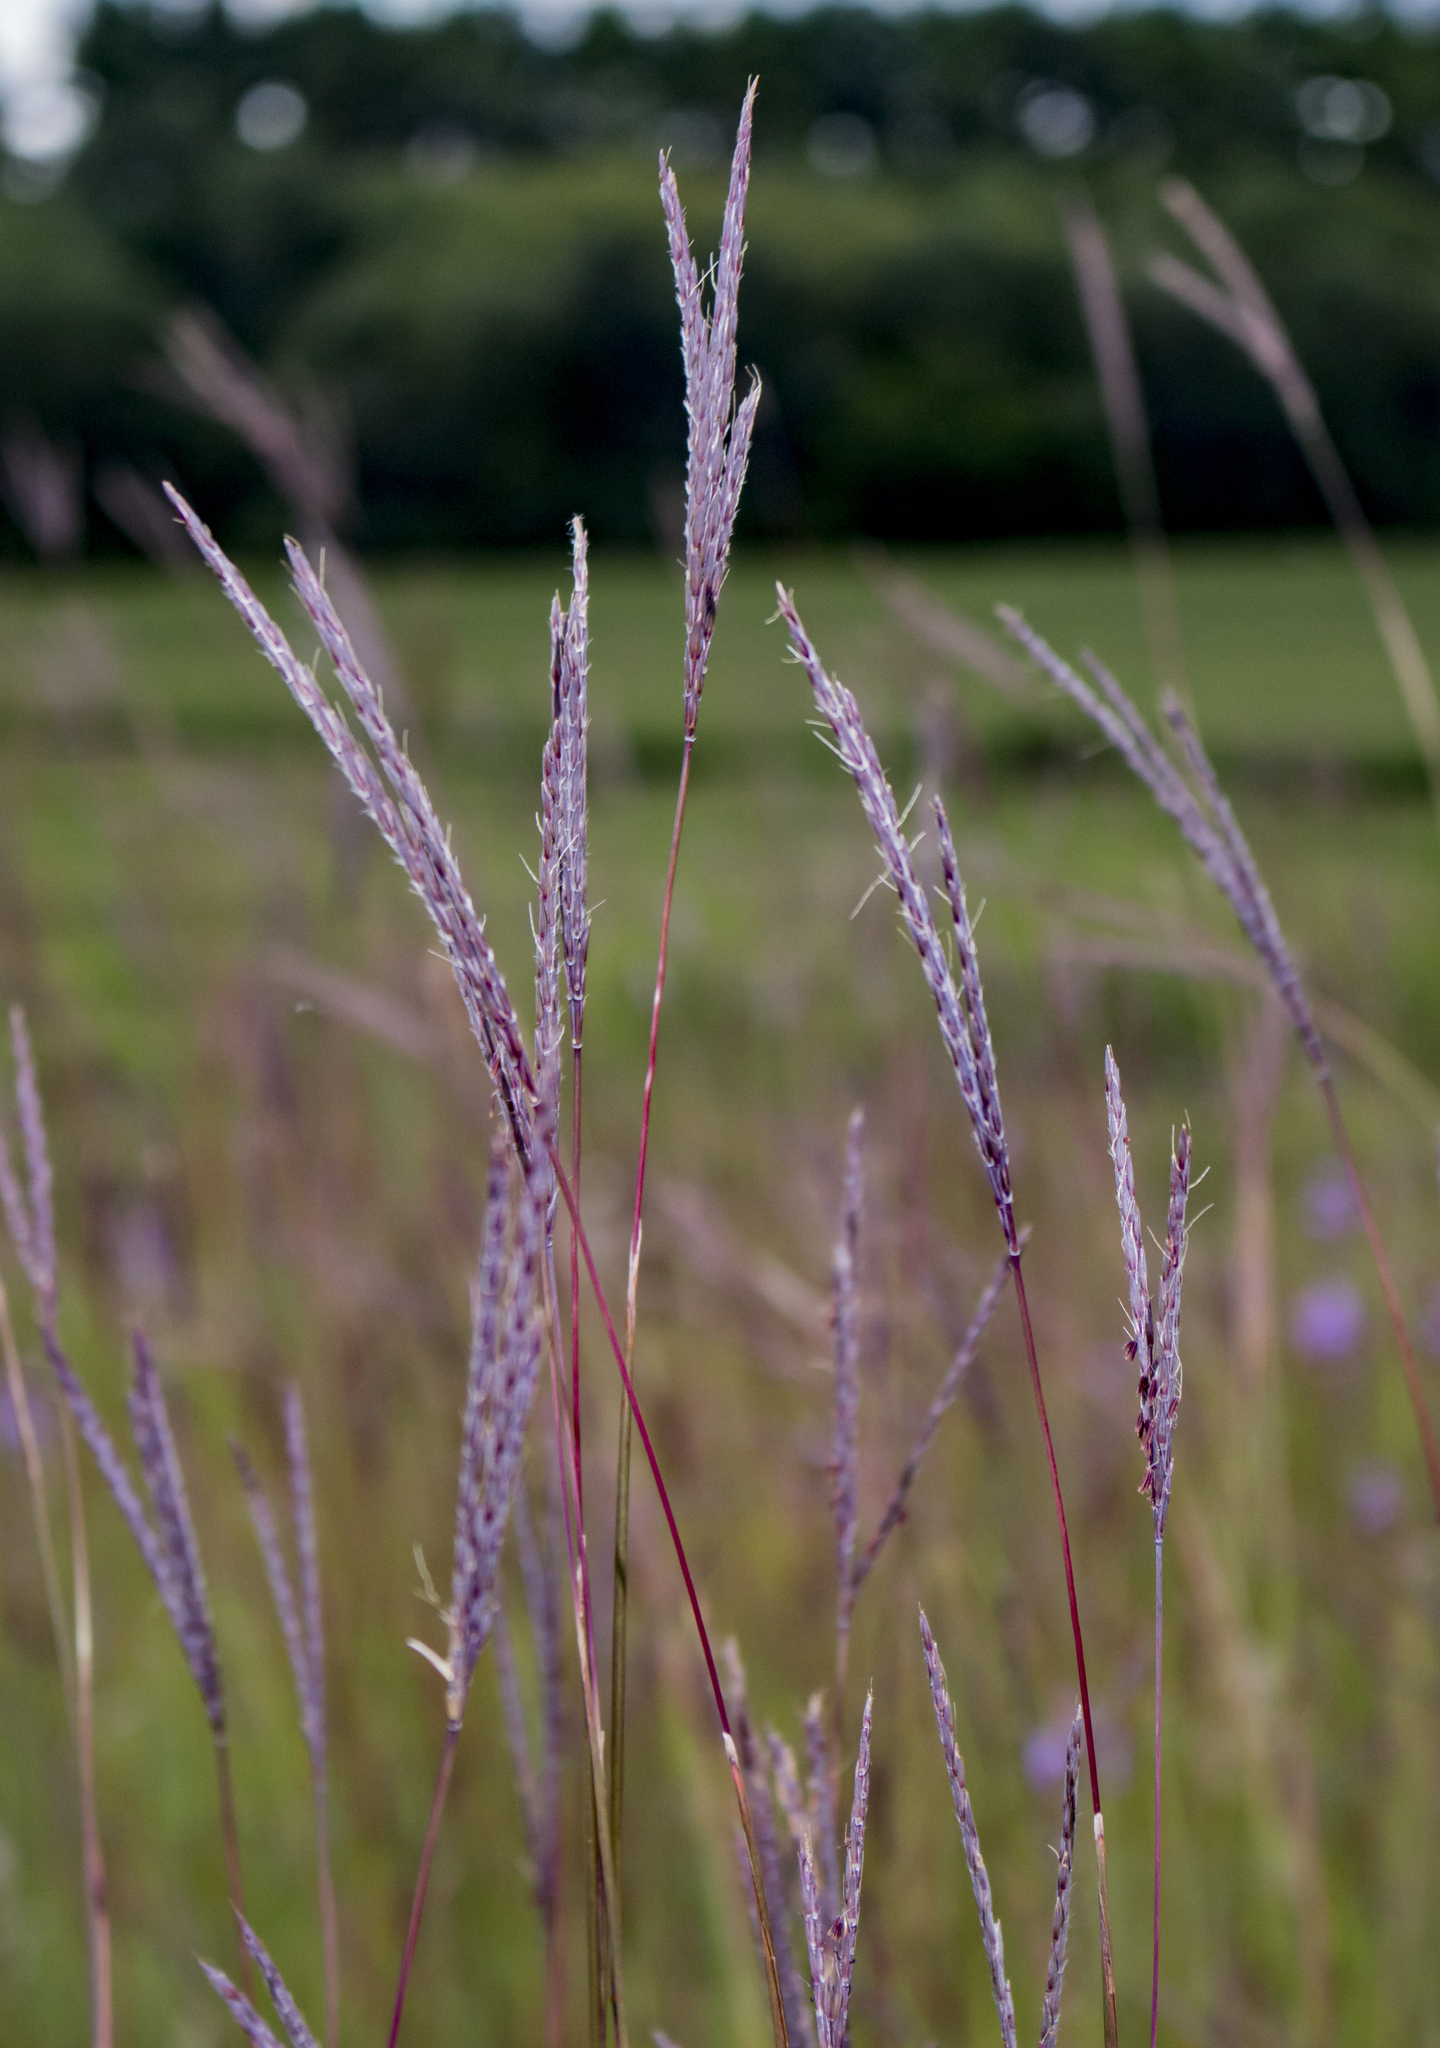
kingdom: Plantae
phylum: Tracheophyta
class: Liliopsida
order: Poales
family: Poaceae
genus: Andropogon
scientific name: Andropogon gerardi
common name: Big bluestem
